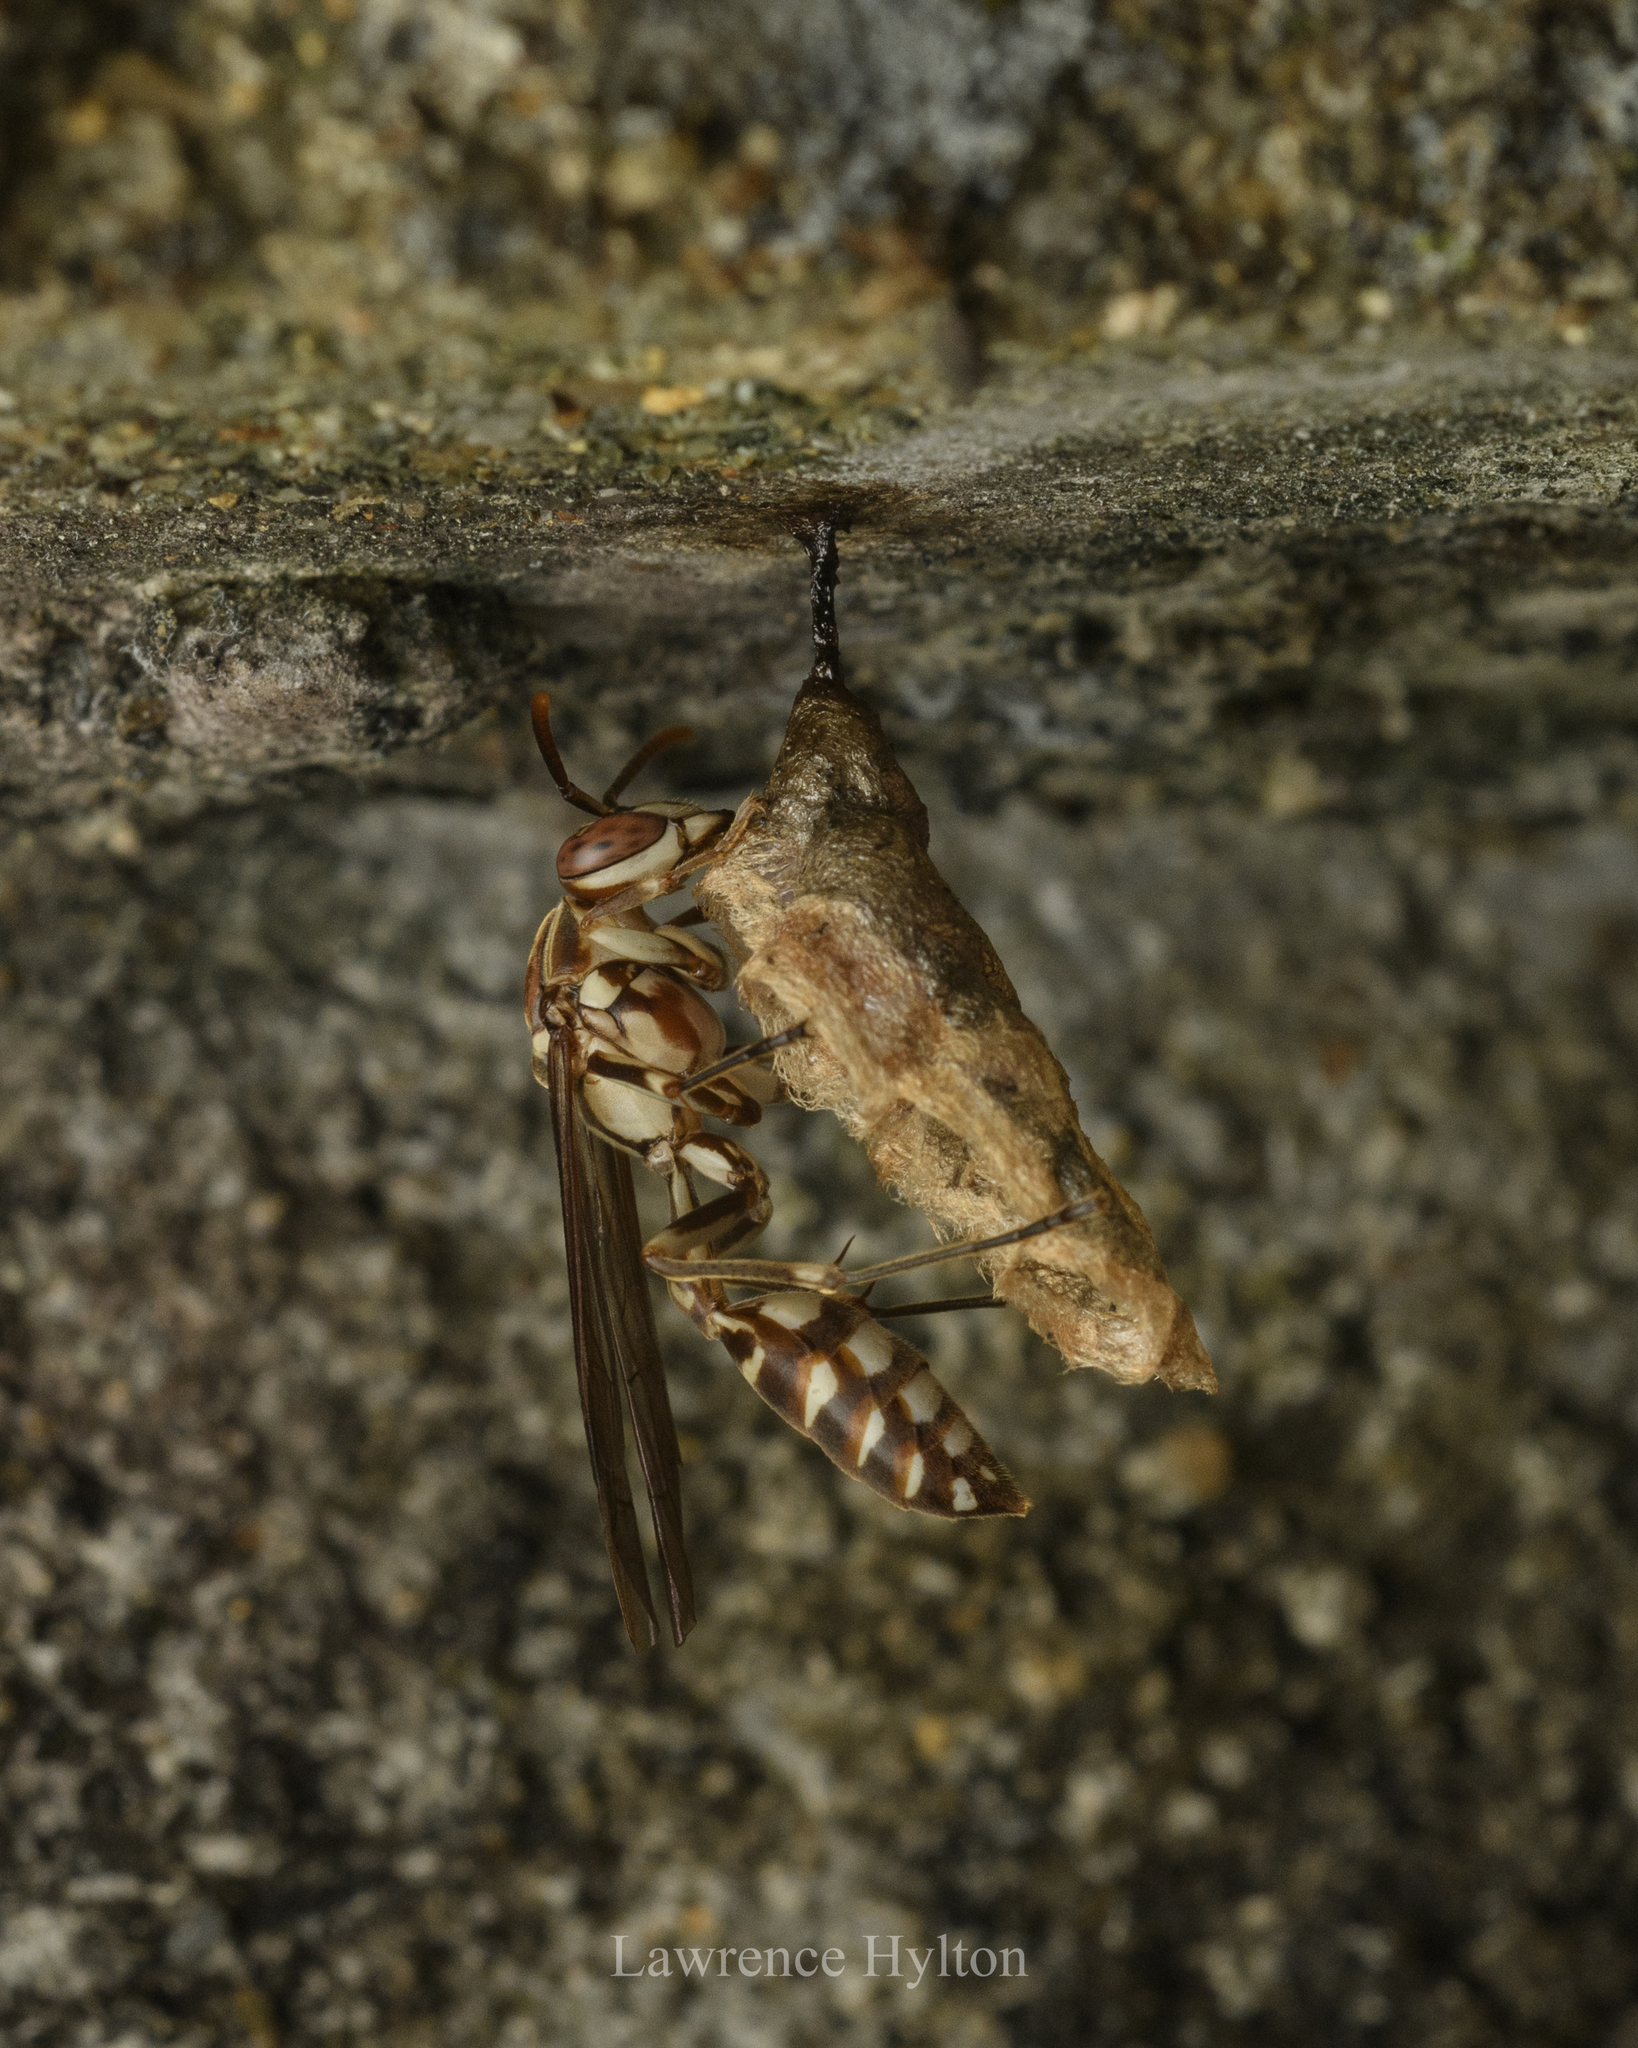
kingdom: Animalia
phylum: Arthropoda
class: Insecta
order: Hymenoptera
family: Vespidae
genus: Parapolybia
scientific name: Parapolybia nodosa
